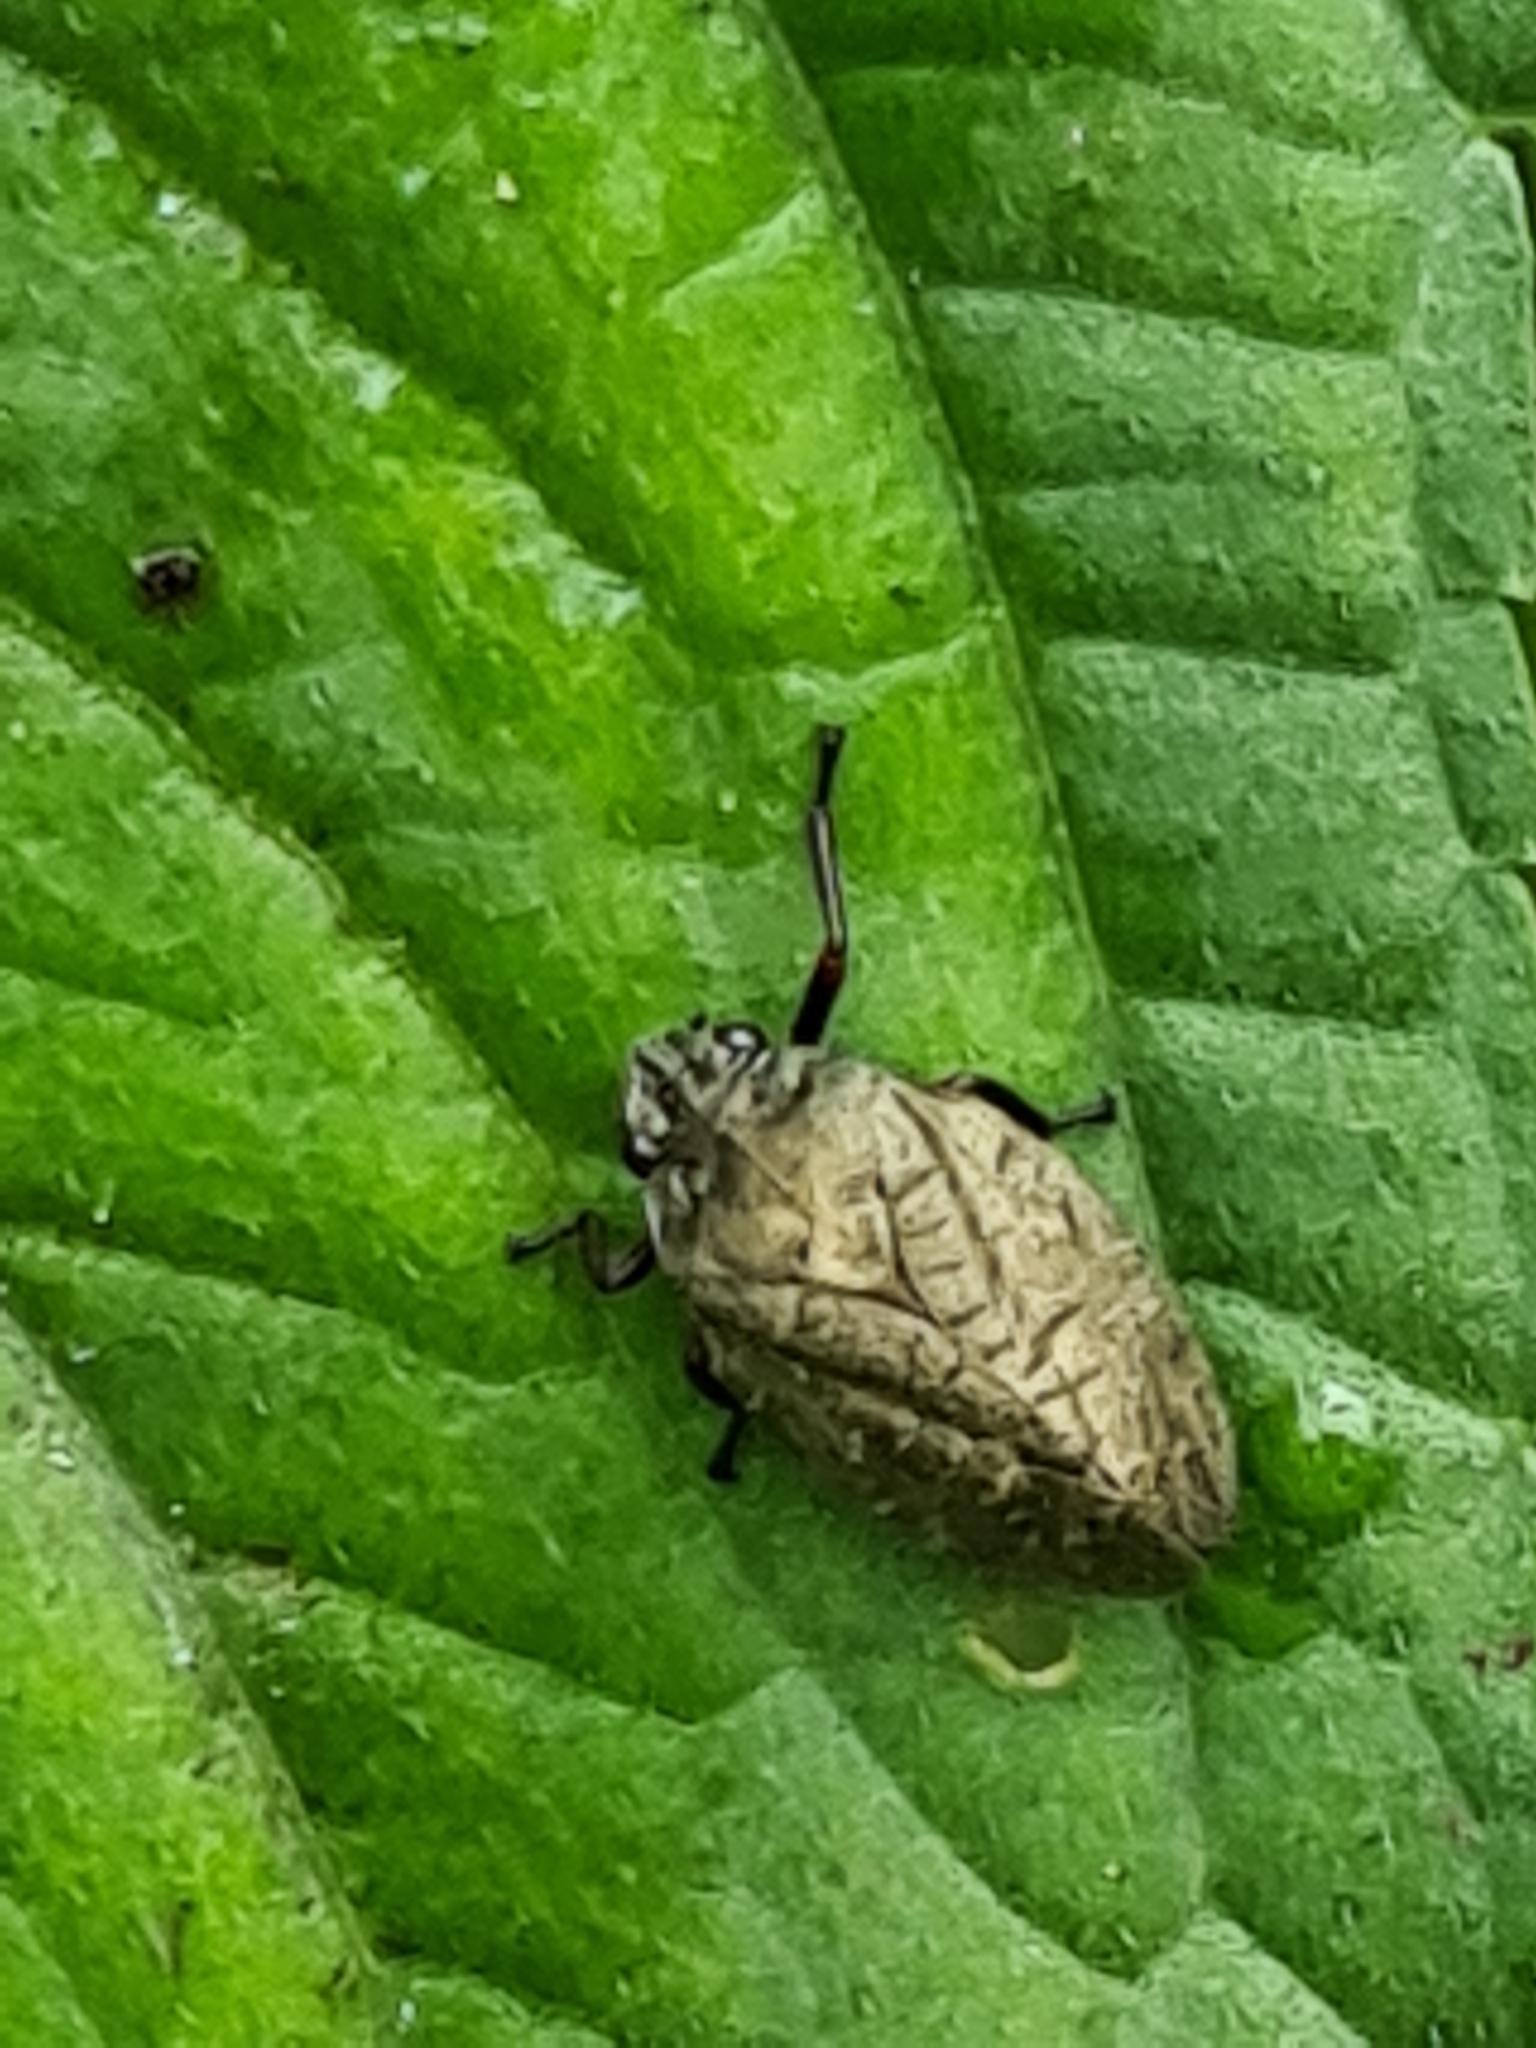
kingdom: Animalia
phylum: Arthropoda
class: Insecta
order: Hemiptera
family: Cercopidae
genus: Zulia
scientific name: Zulia pubescens
